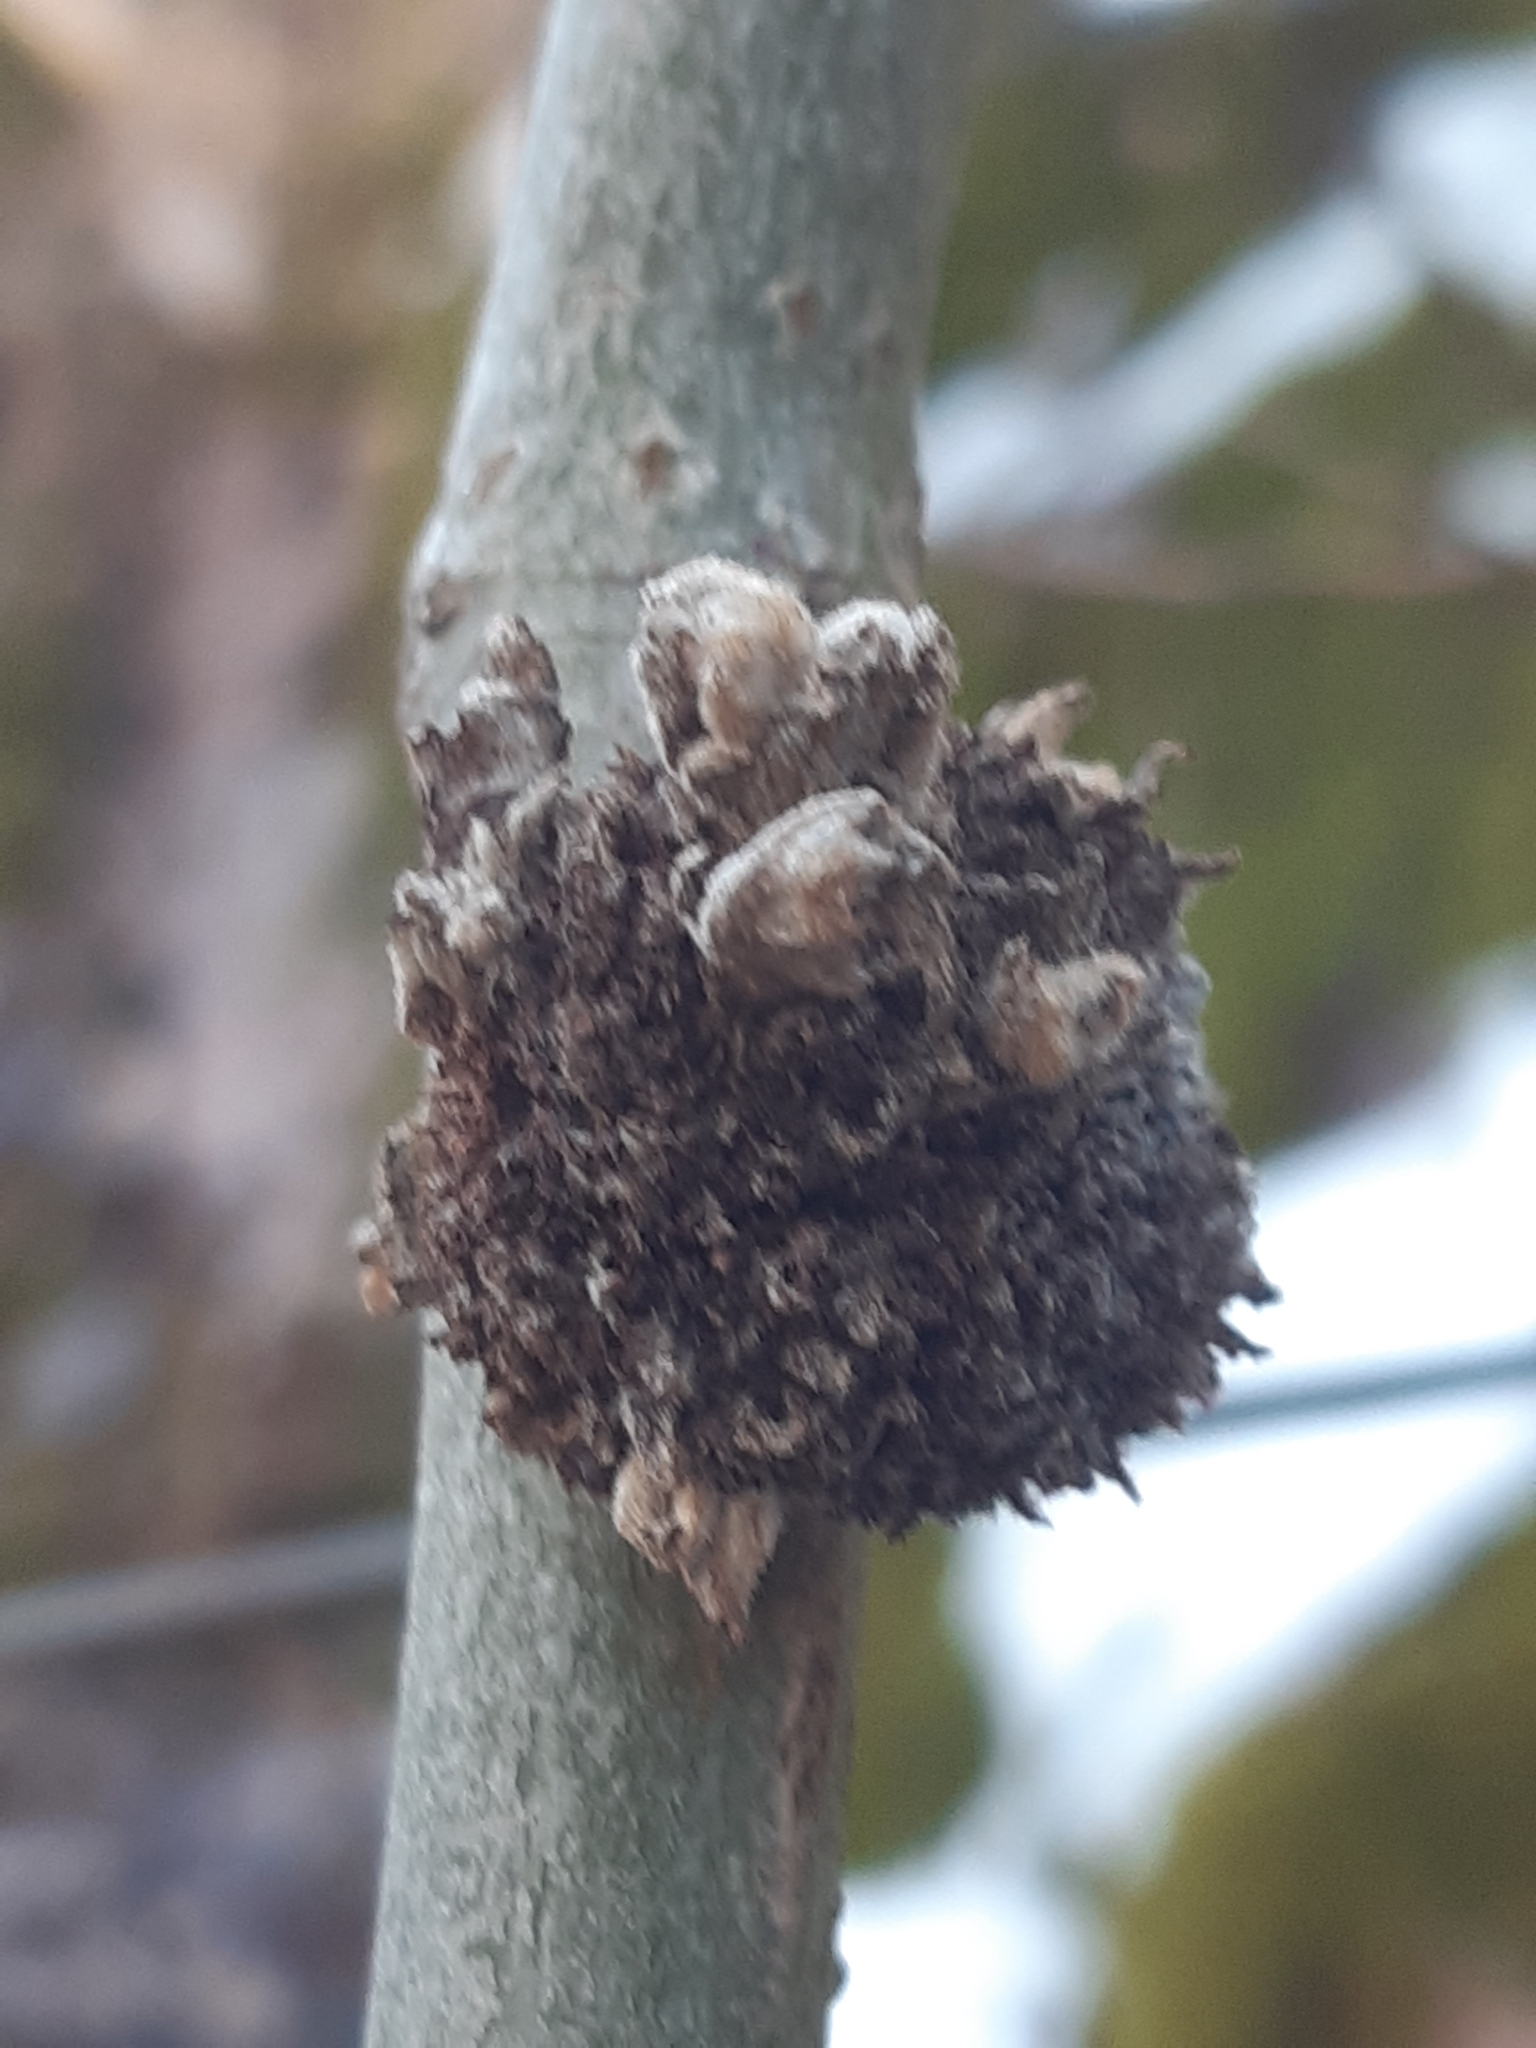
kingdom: Animalia
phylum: Arthropoda
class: Arachnida
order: Trombidiformes
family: Eriophyidae
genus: Stenacis
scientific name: Stenacis triradiatus
